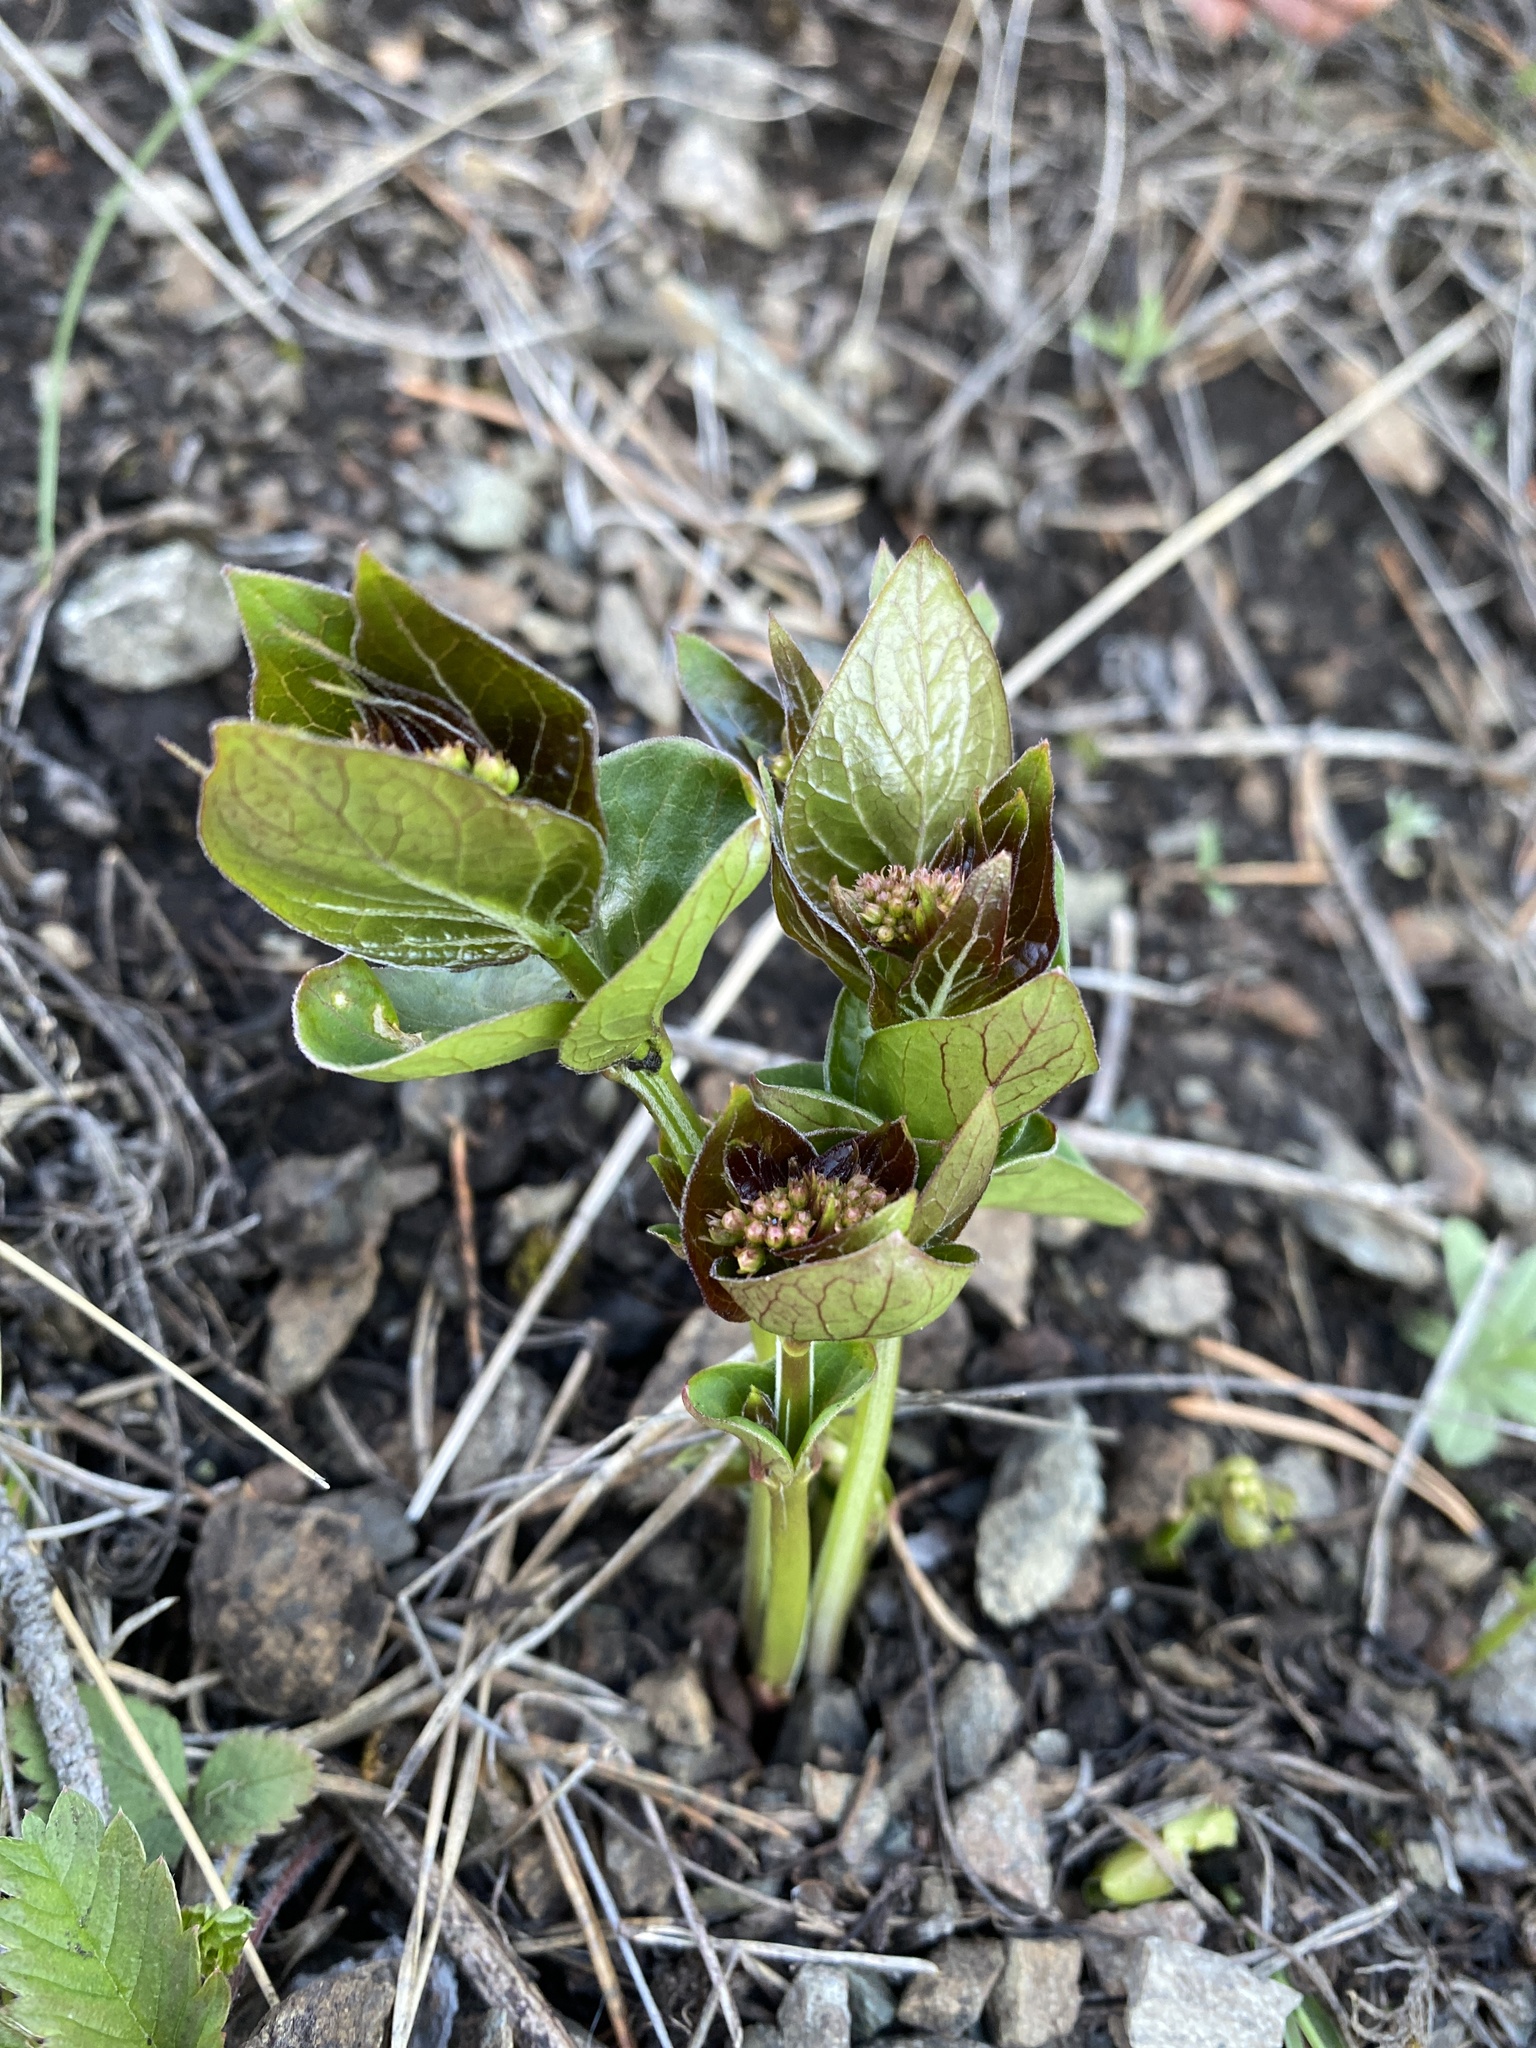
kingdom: Plantae
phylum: Tracheophyta
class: Magnoliopsida
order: Gentianales
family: Apocynaceae
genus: Vincetoxicum
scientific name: Vincetoxicum hirundinaria
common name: White swallowwort
